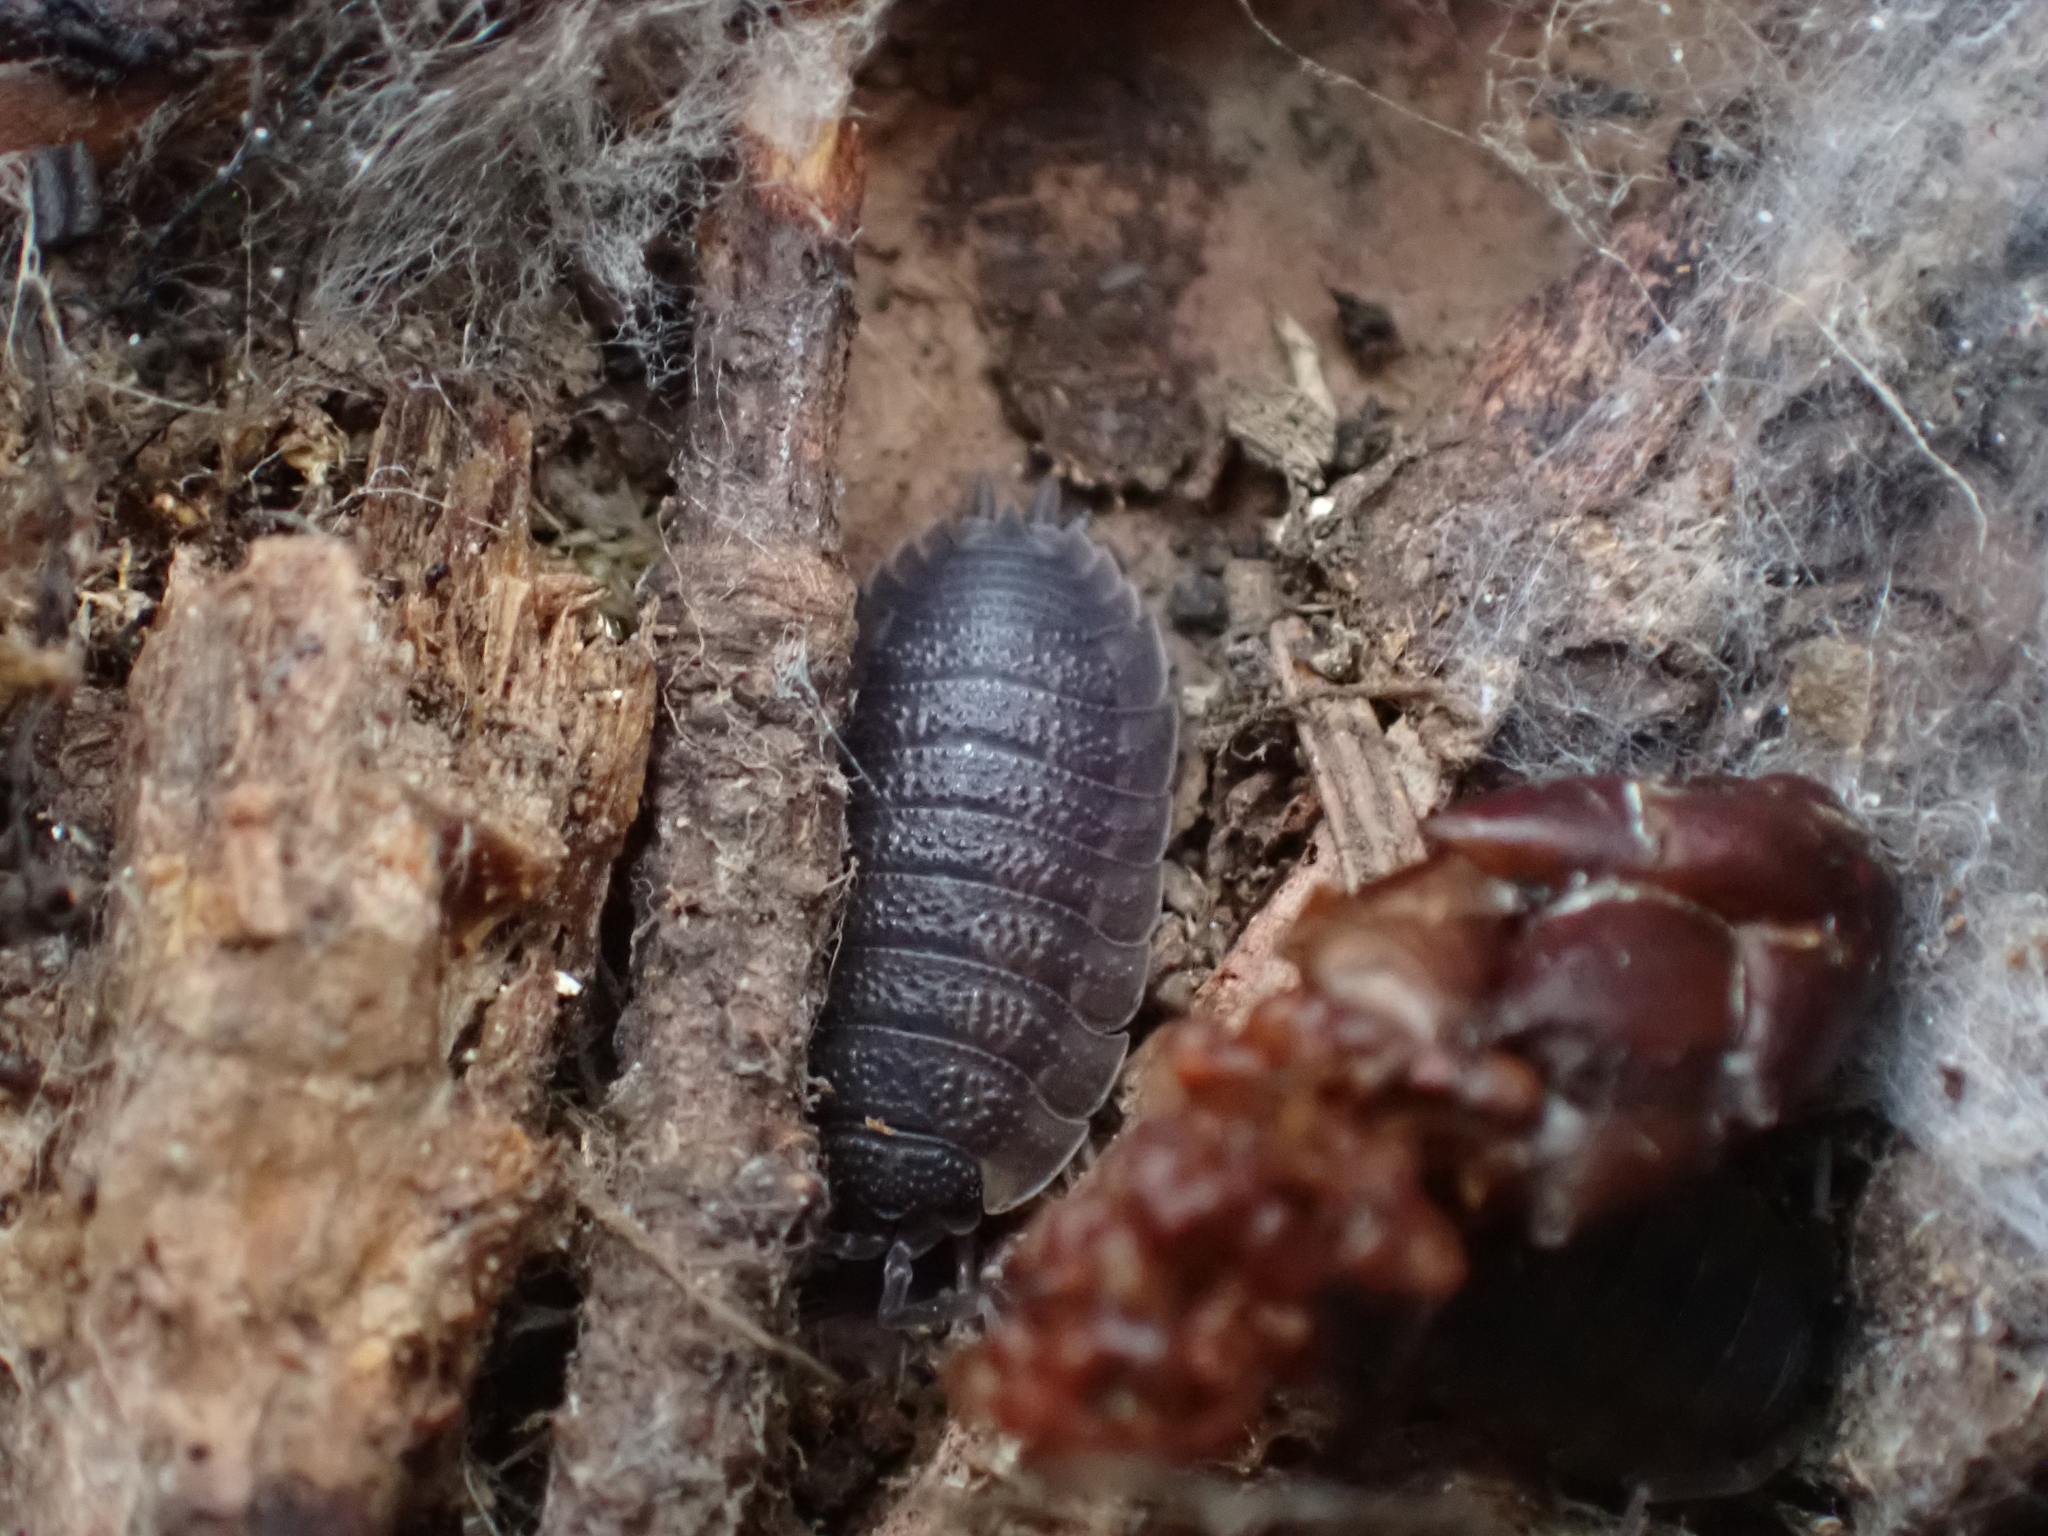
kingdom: Animalia
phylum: Arthropoda
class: Malacostraca
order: Isopoda
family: Porcellionidae
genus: Porcellio
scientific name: Porcellio scaber
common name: Common rough woodlouse
